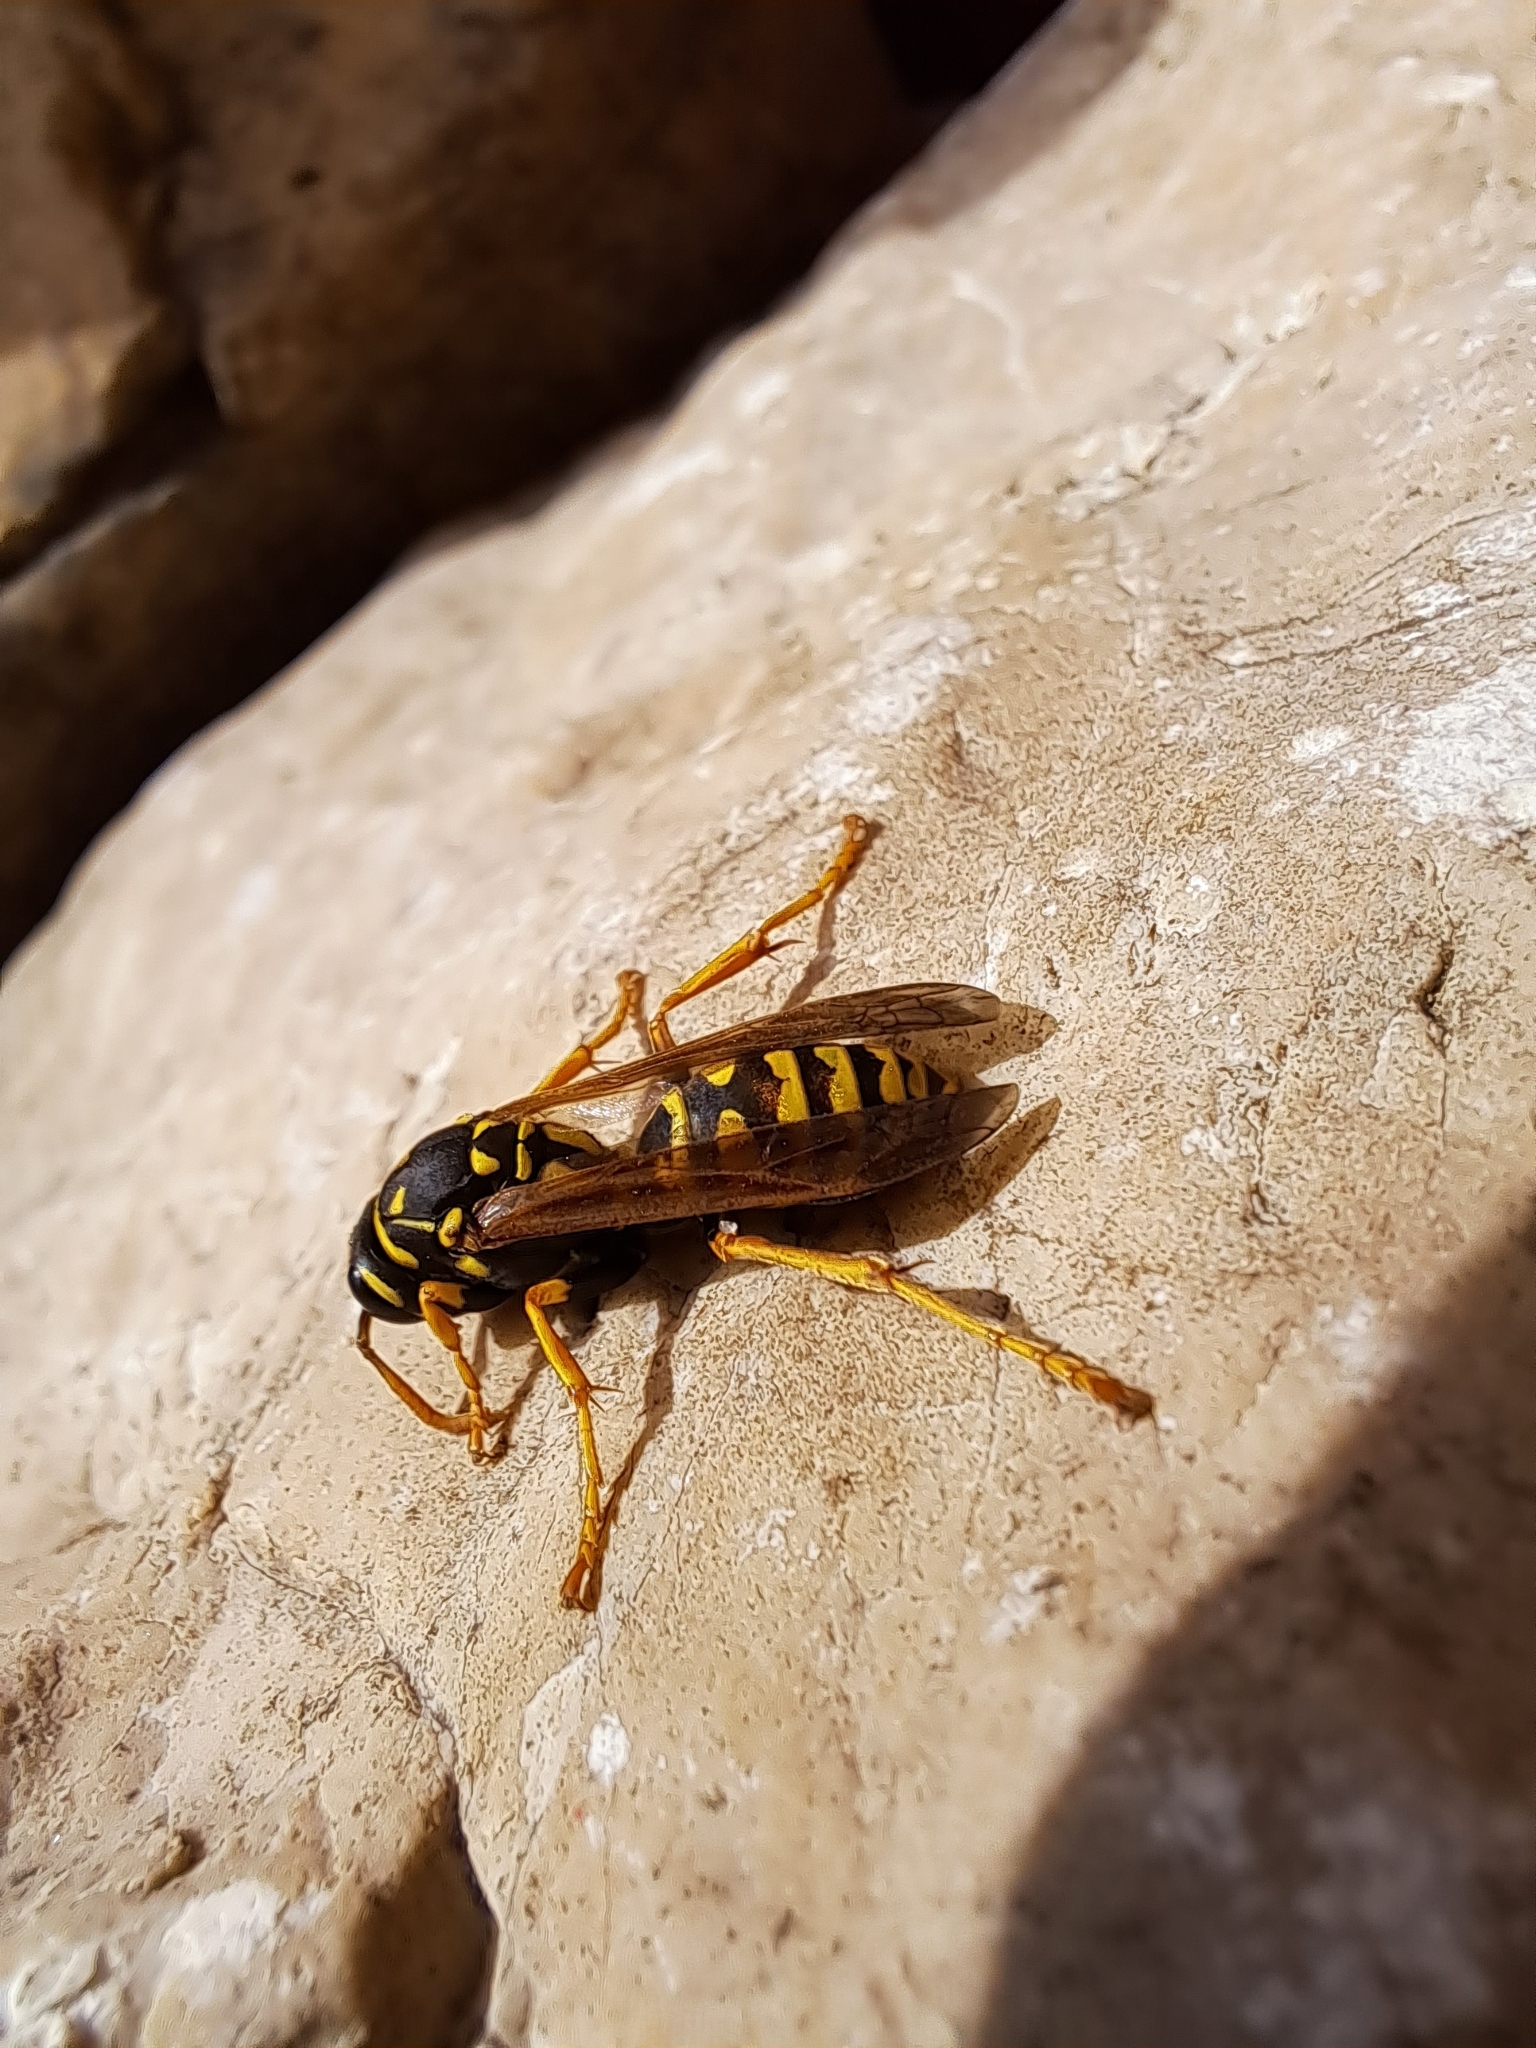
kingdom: Animalia
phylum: Arthropoda
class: Insecta
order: Hymenoptera
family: Eumenidae
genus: Polistes
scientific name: Polistes dominula
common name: Paper wasp
